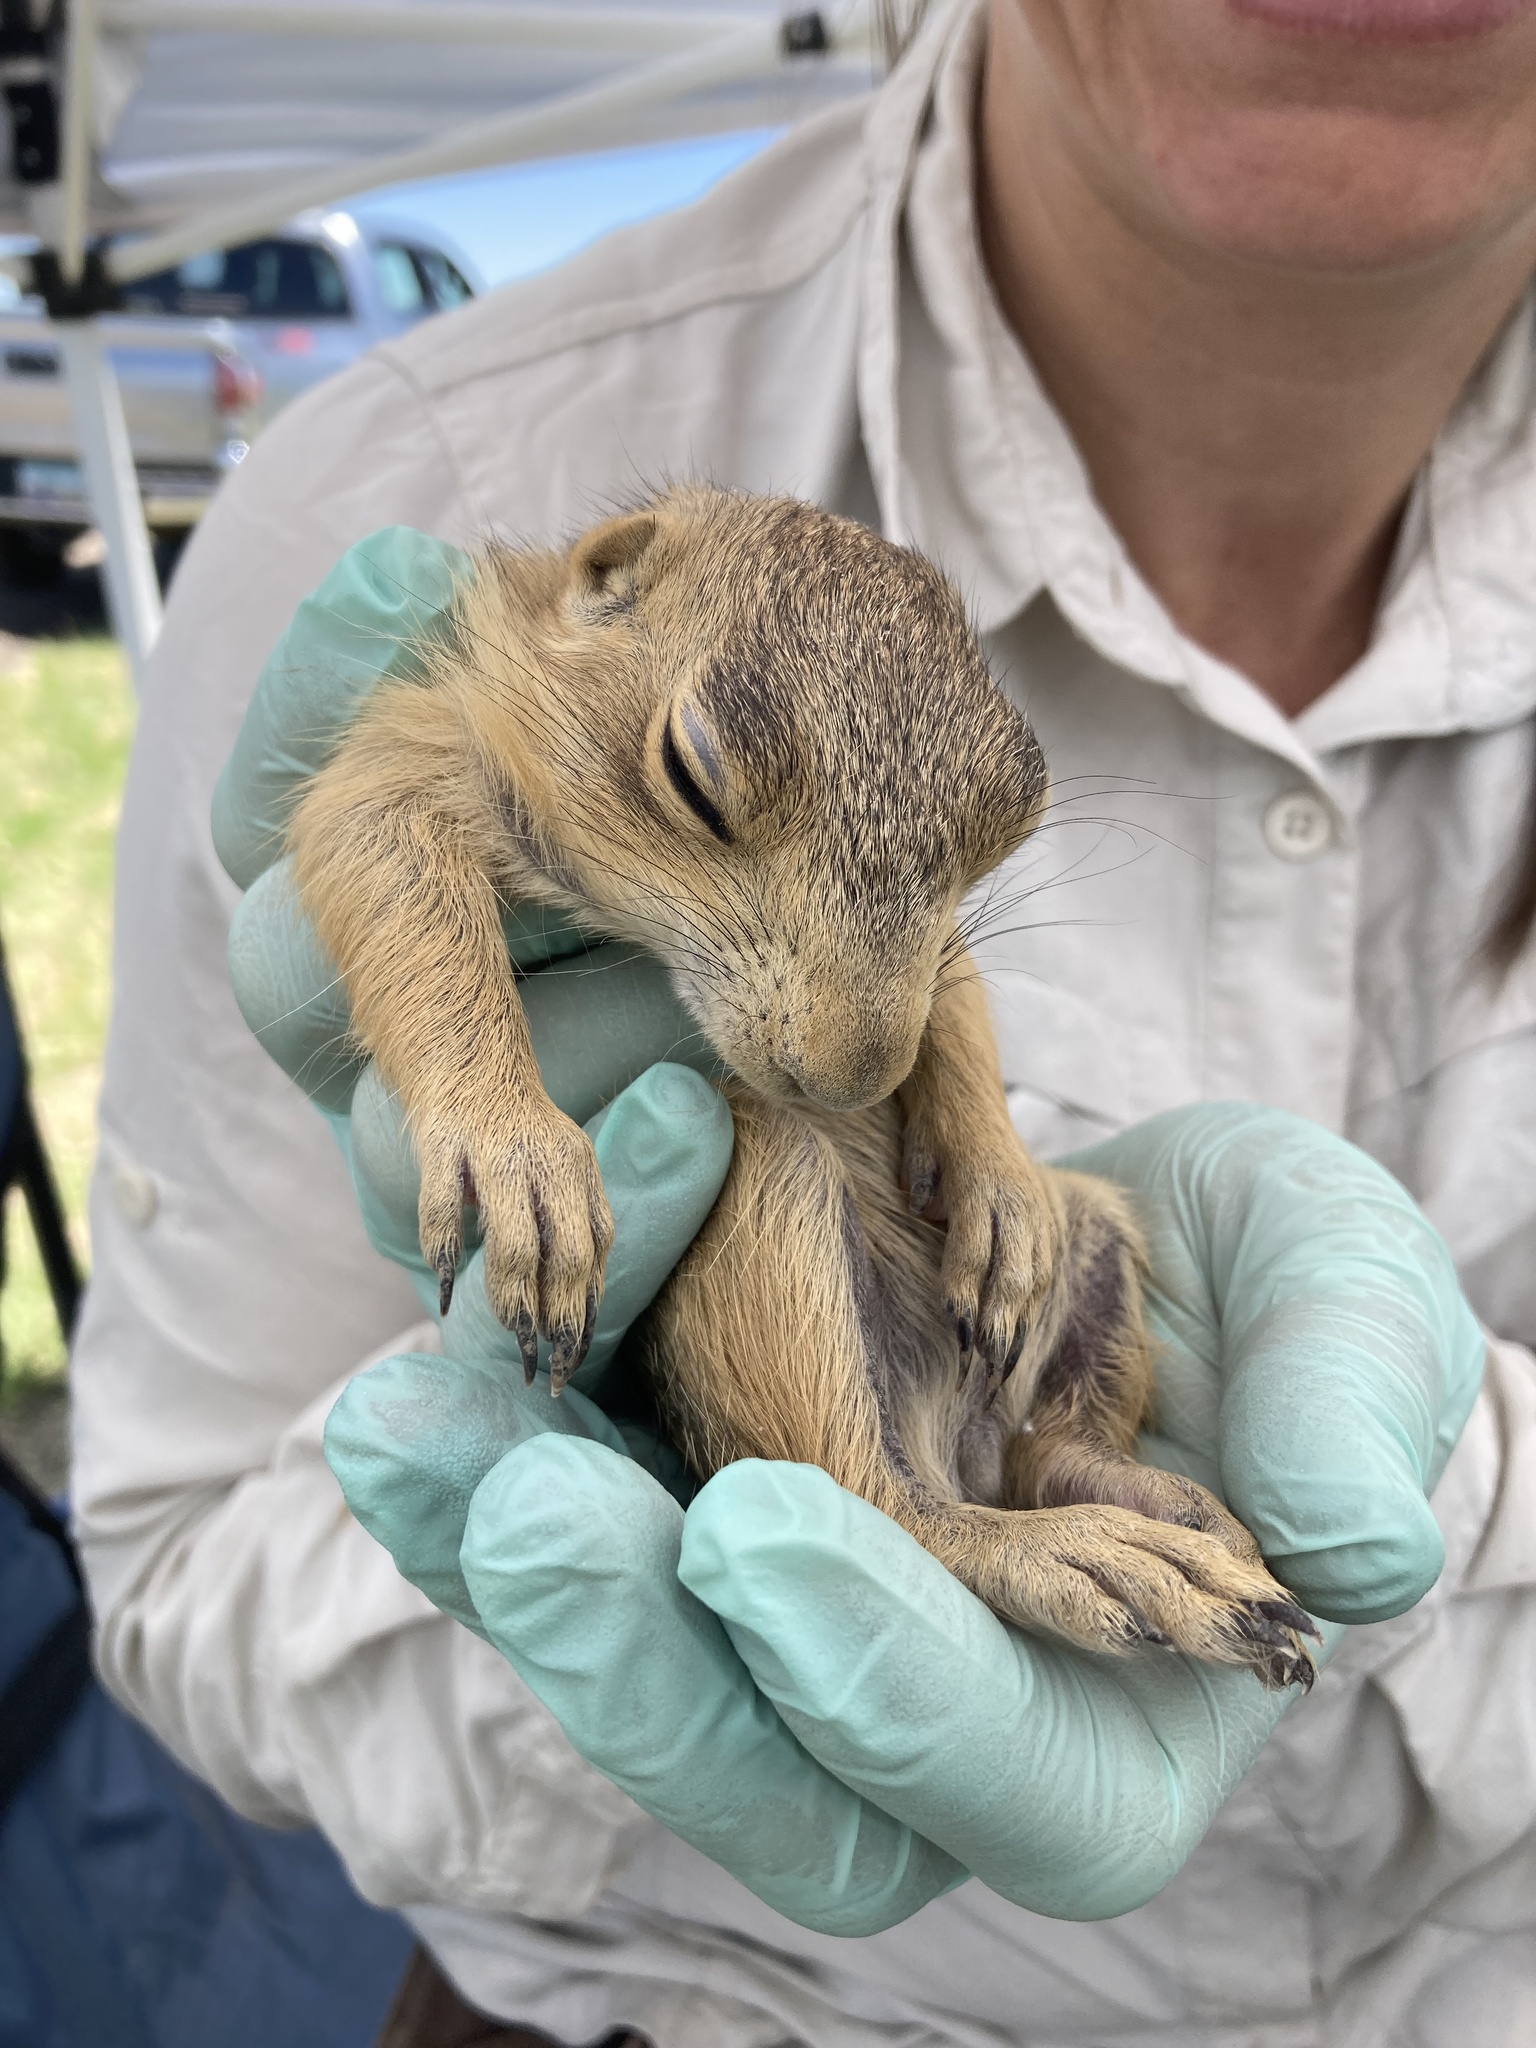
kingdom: Animalia
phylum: Chordata
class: Mammalia
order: Rodentia
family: Sciuridae
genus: Cynomys
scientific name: Cynomys gunnisoni
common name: Gunnison's prairie dog
